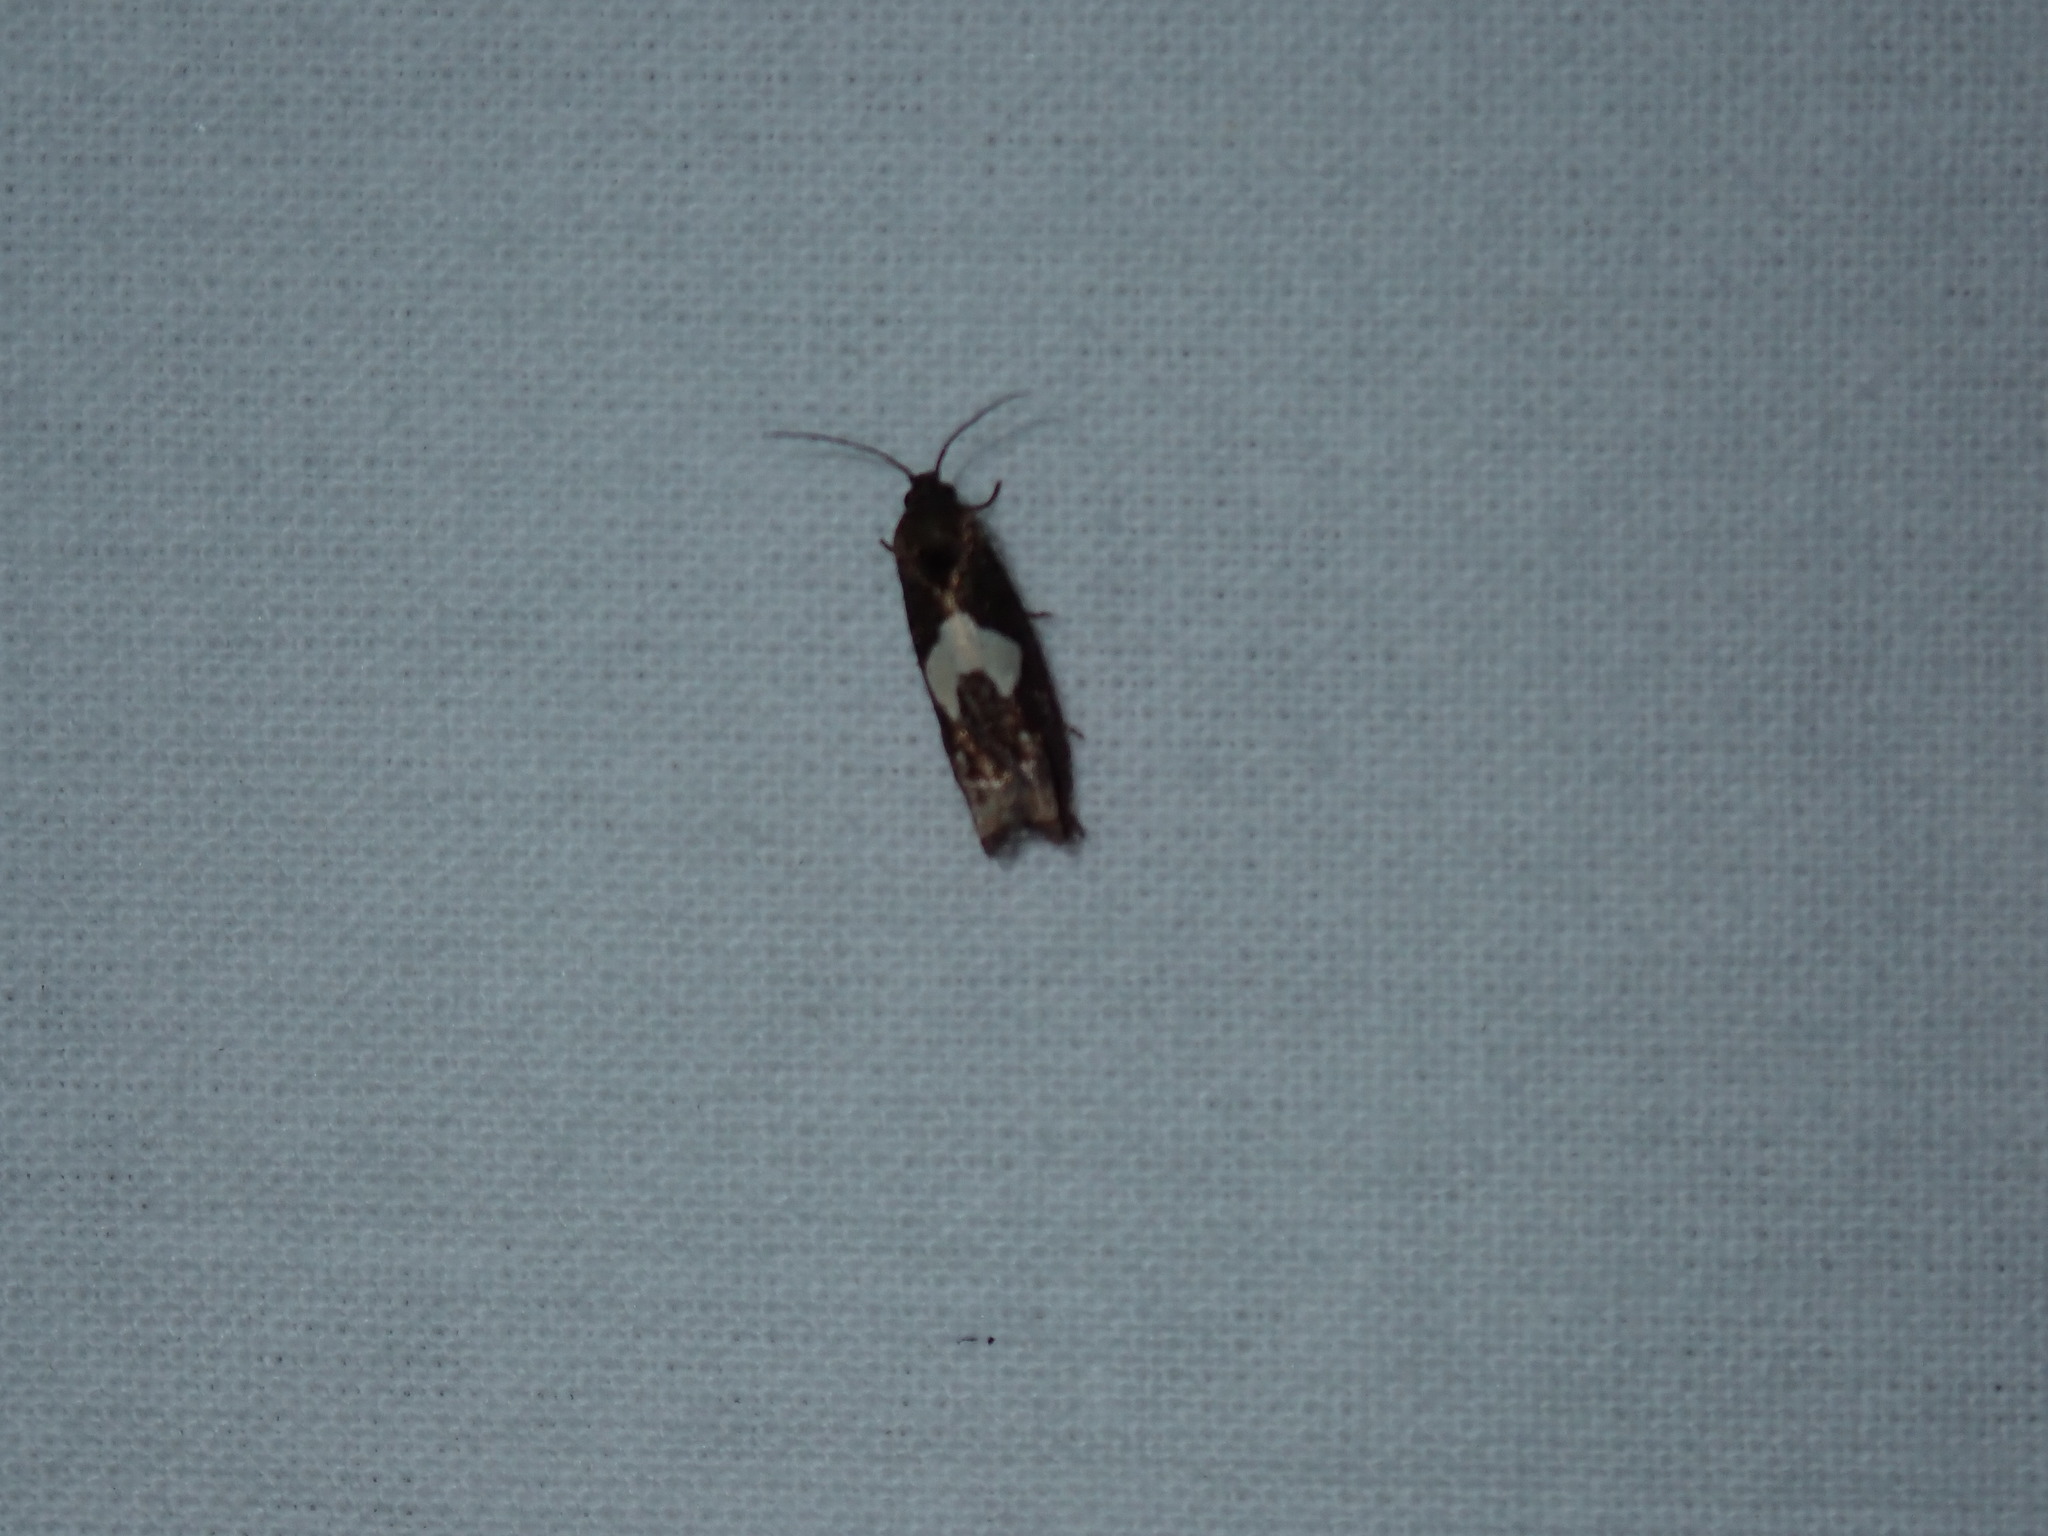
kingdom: Animalia
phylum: Arthropoda
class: Insecta
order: Lepidoptera
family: Tortricidae
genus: Epiblema
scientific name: Epiblema otiosana
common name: Bidens borer moth
